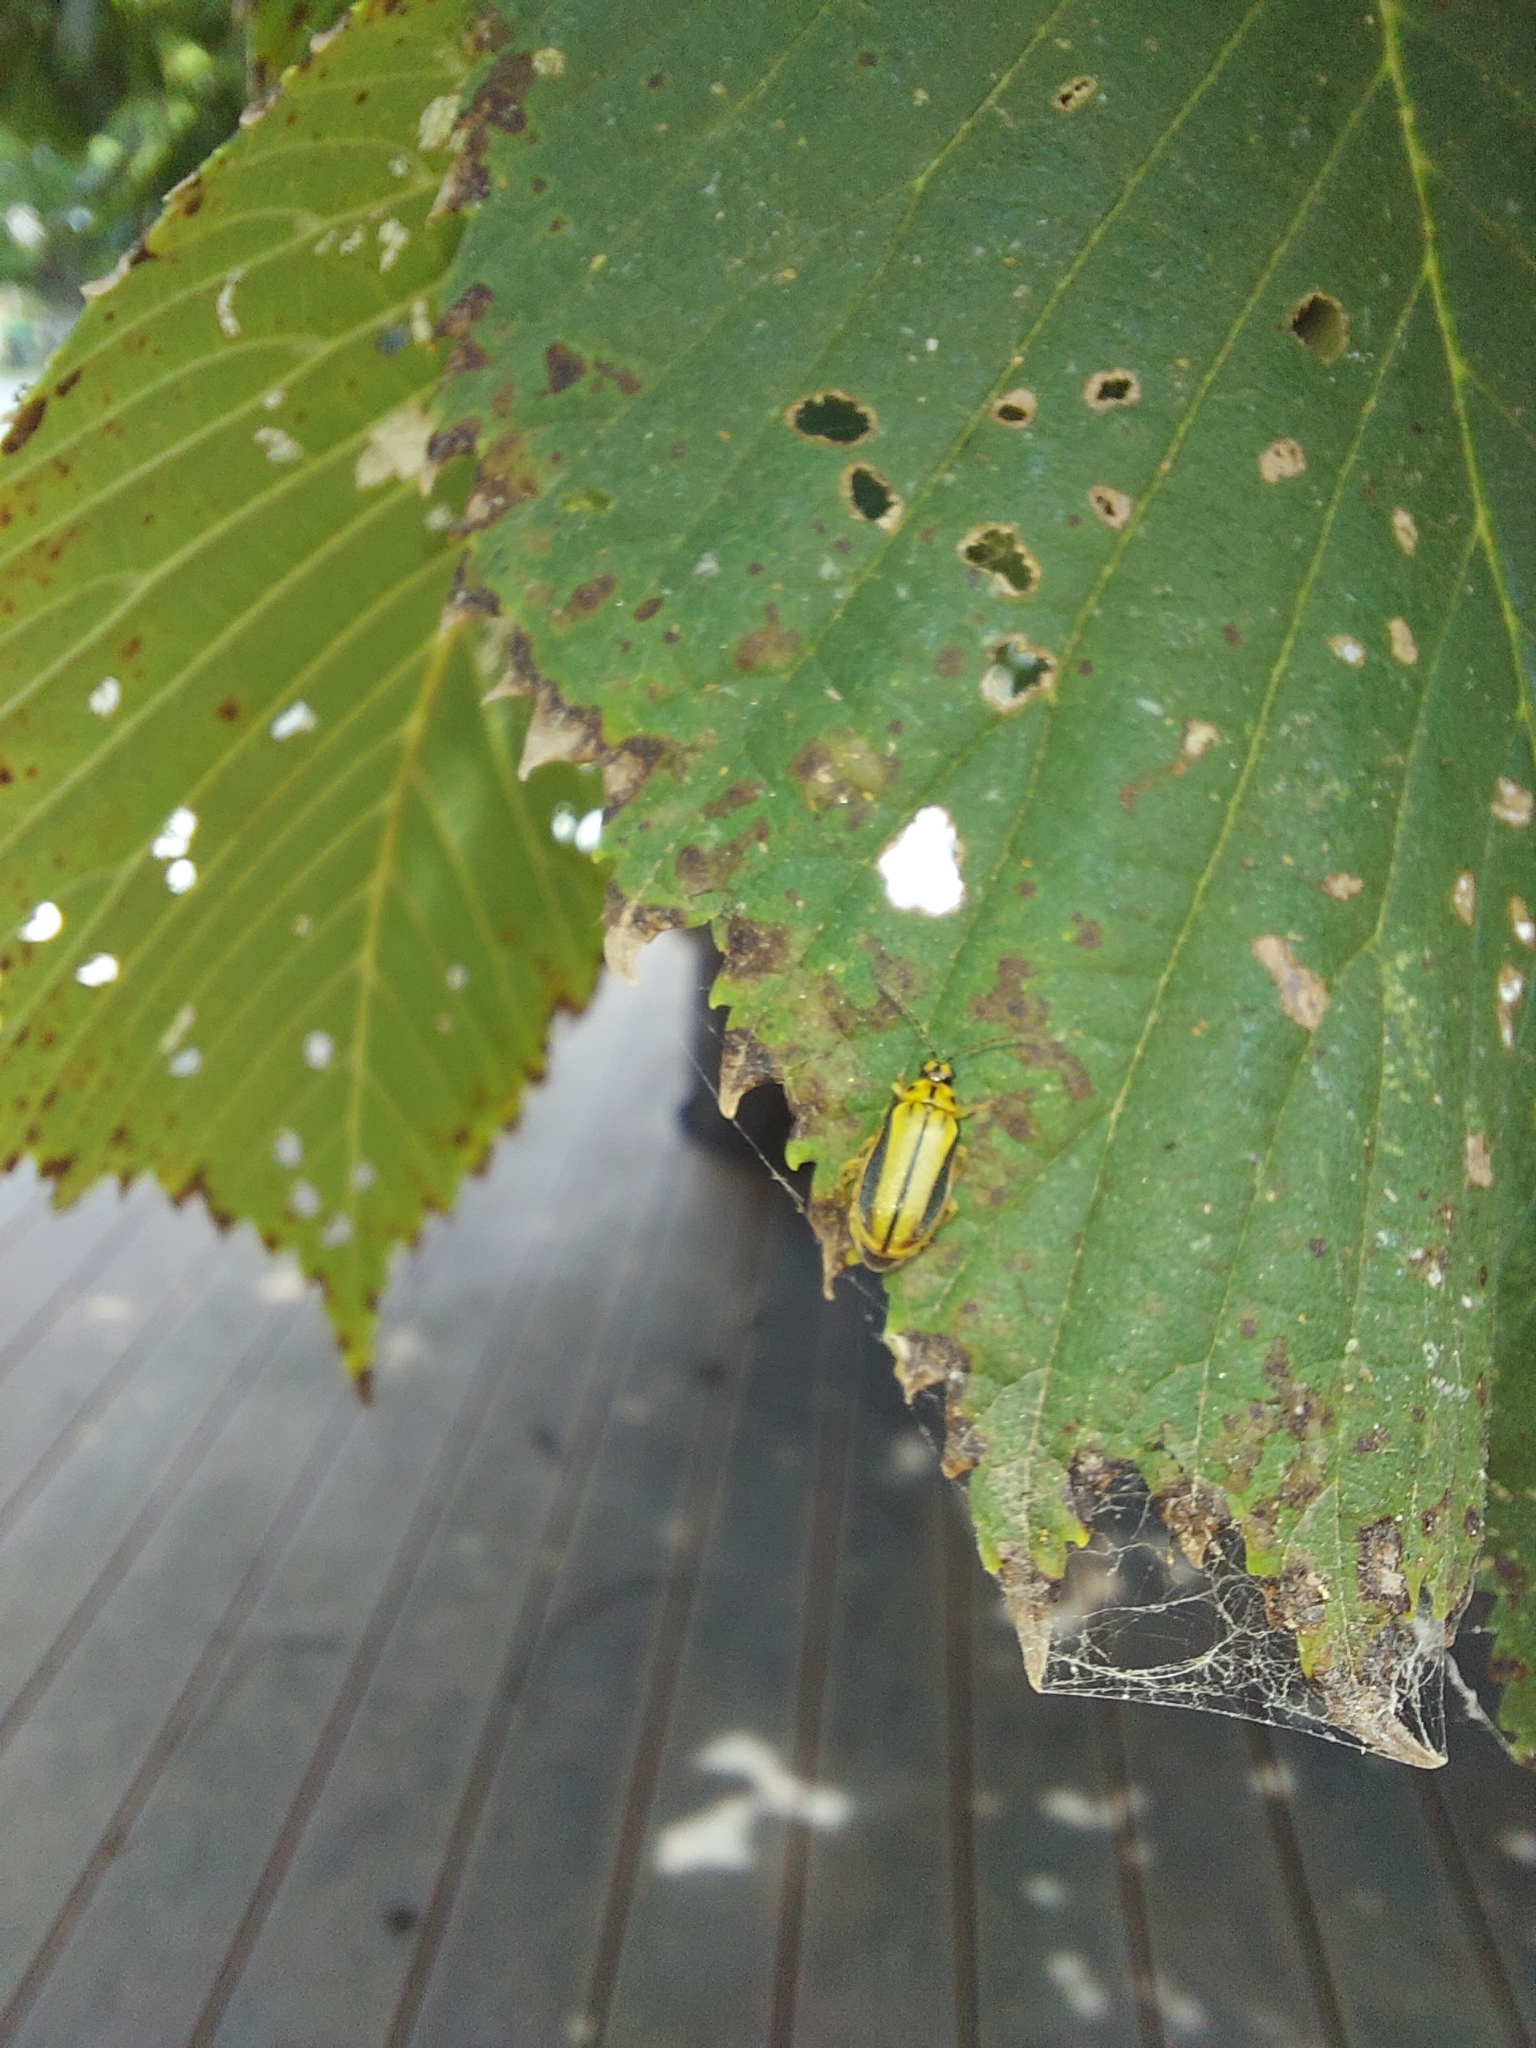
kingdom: Animalia
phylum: Arthropoda
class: Insecta
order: Coleoptera
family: Chrysomelidae
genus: Xanthogaleruca
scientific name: Xanthogaleruca luteola
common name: Elm leaf beetle
